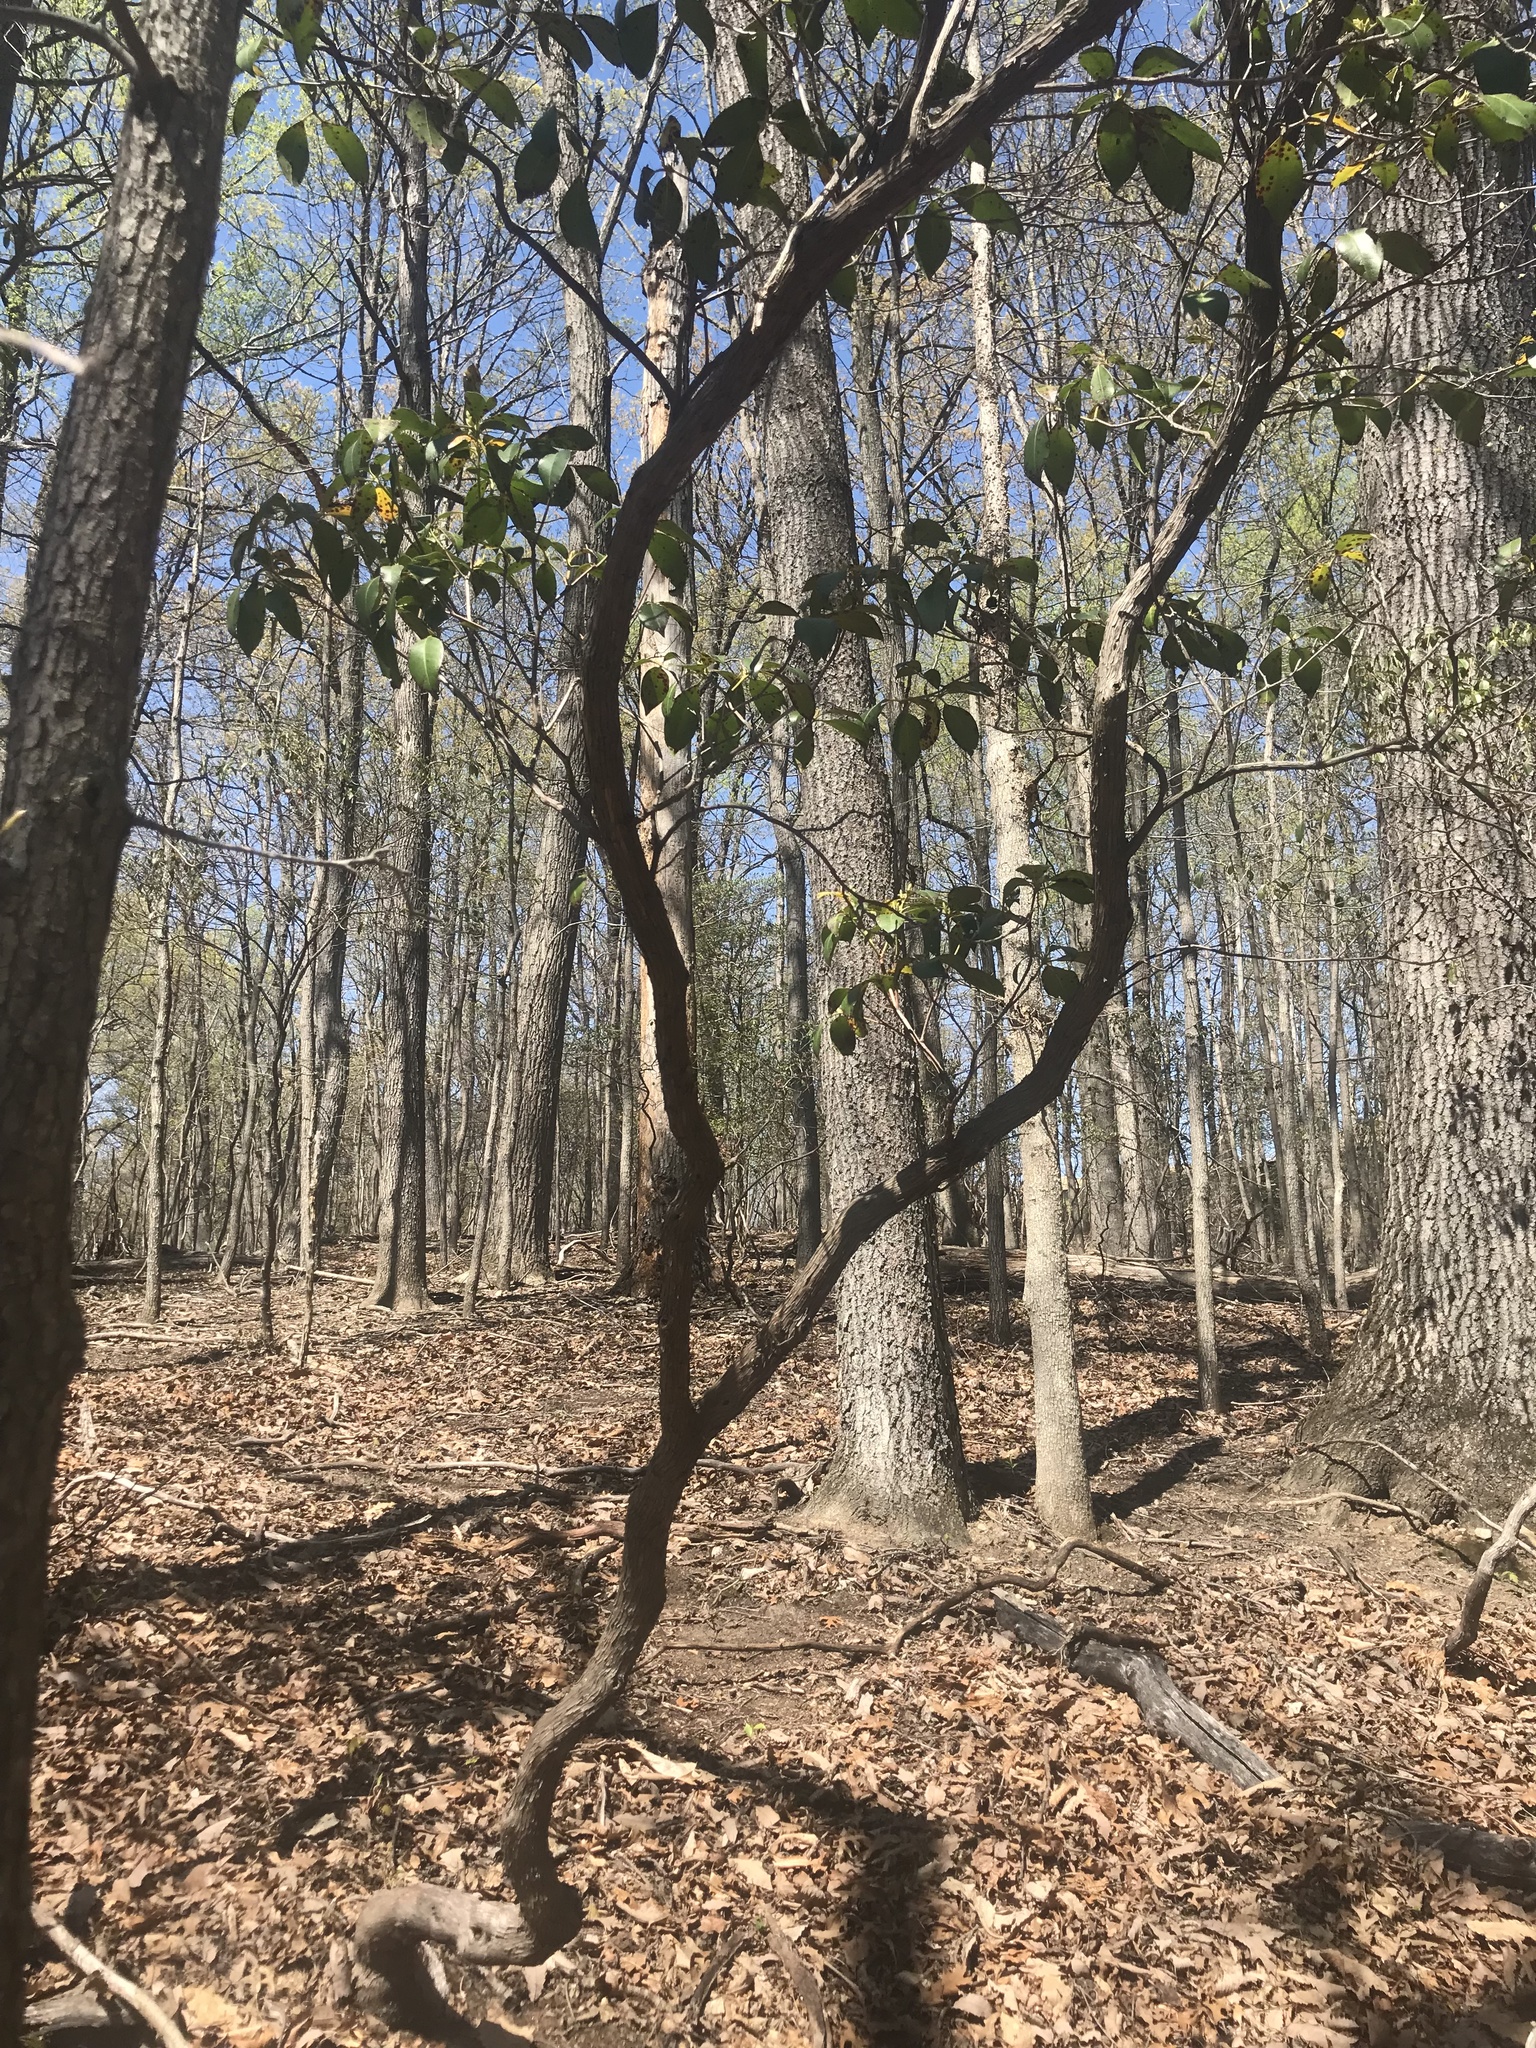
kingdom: Plantae
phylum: Tracheophyta
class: Magnoliopsida
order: Ericales
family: Ericaceae
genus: Kalmia
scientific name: Kalmia latifolia
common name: Mountain-laurel
